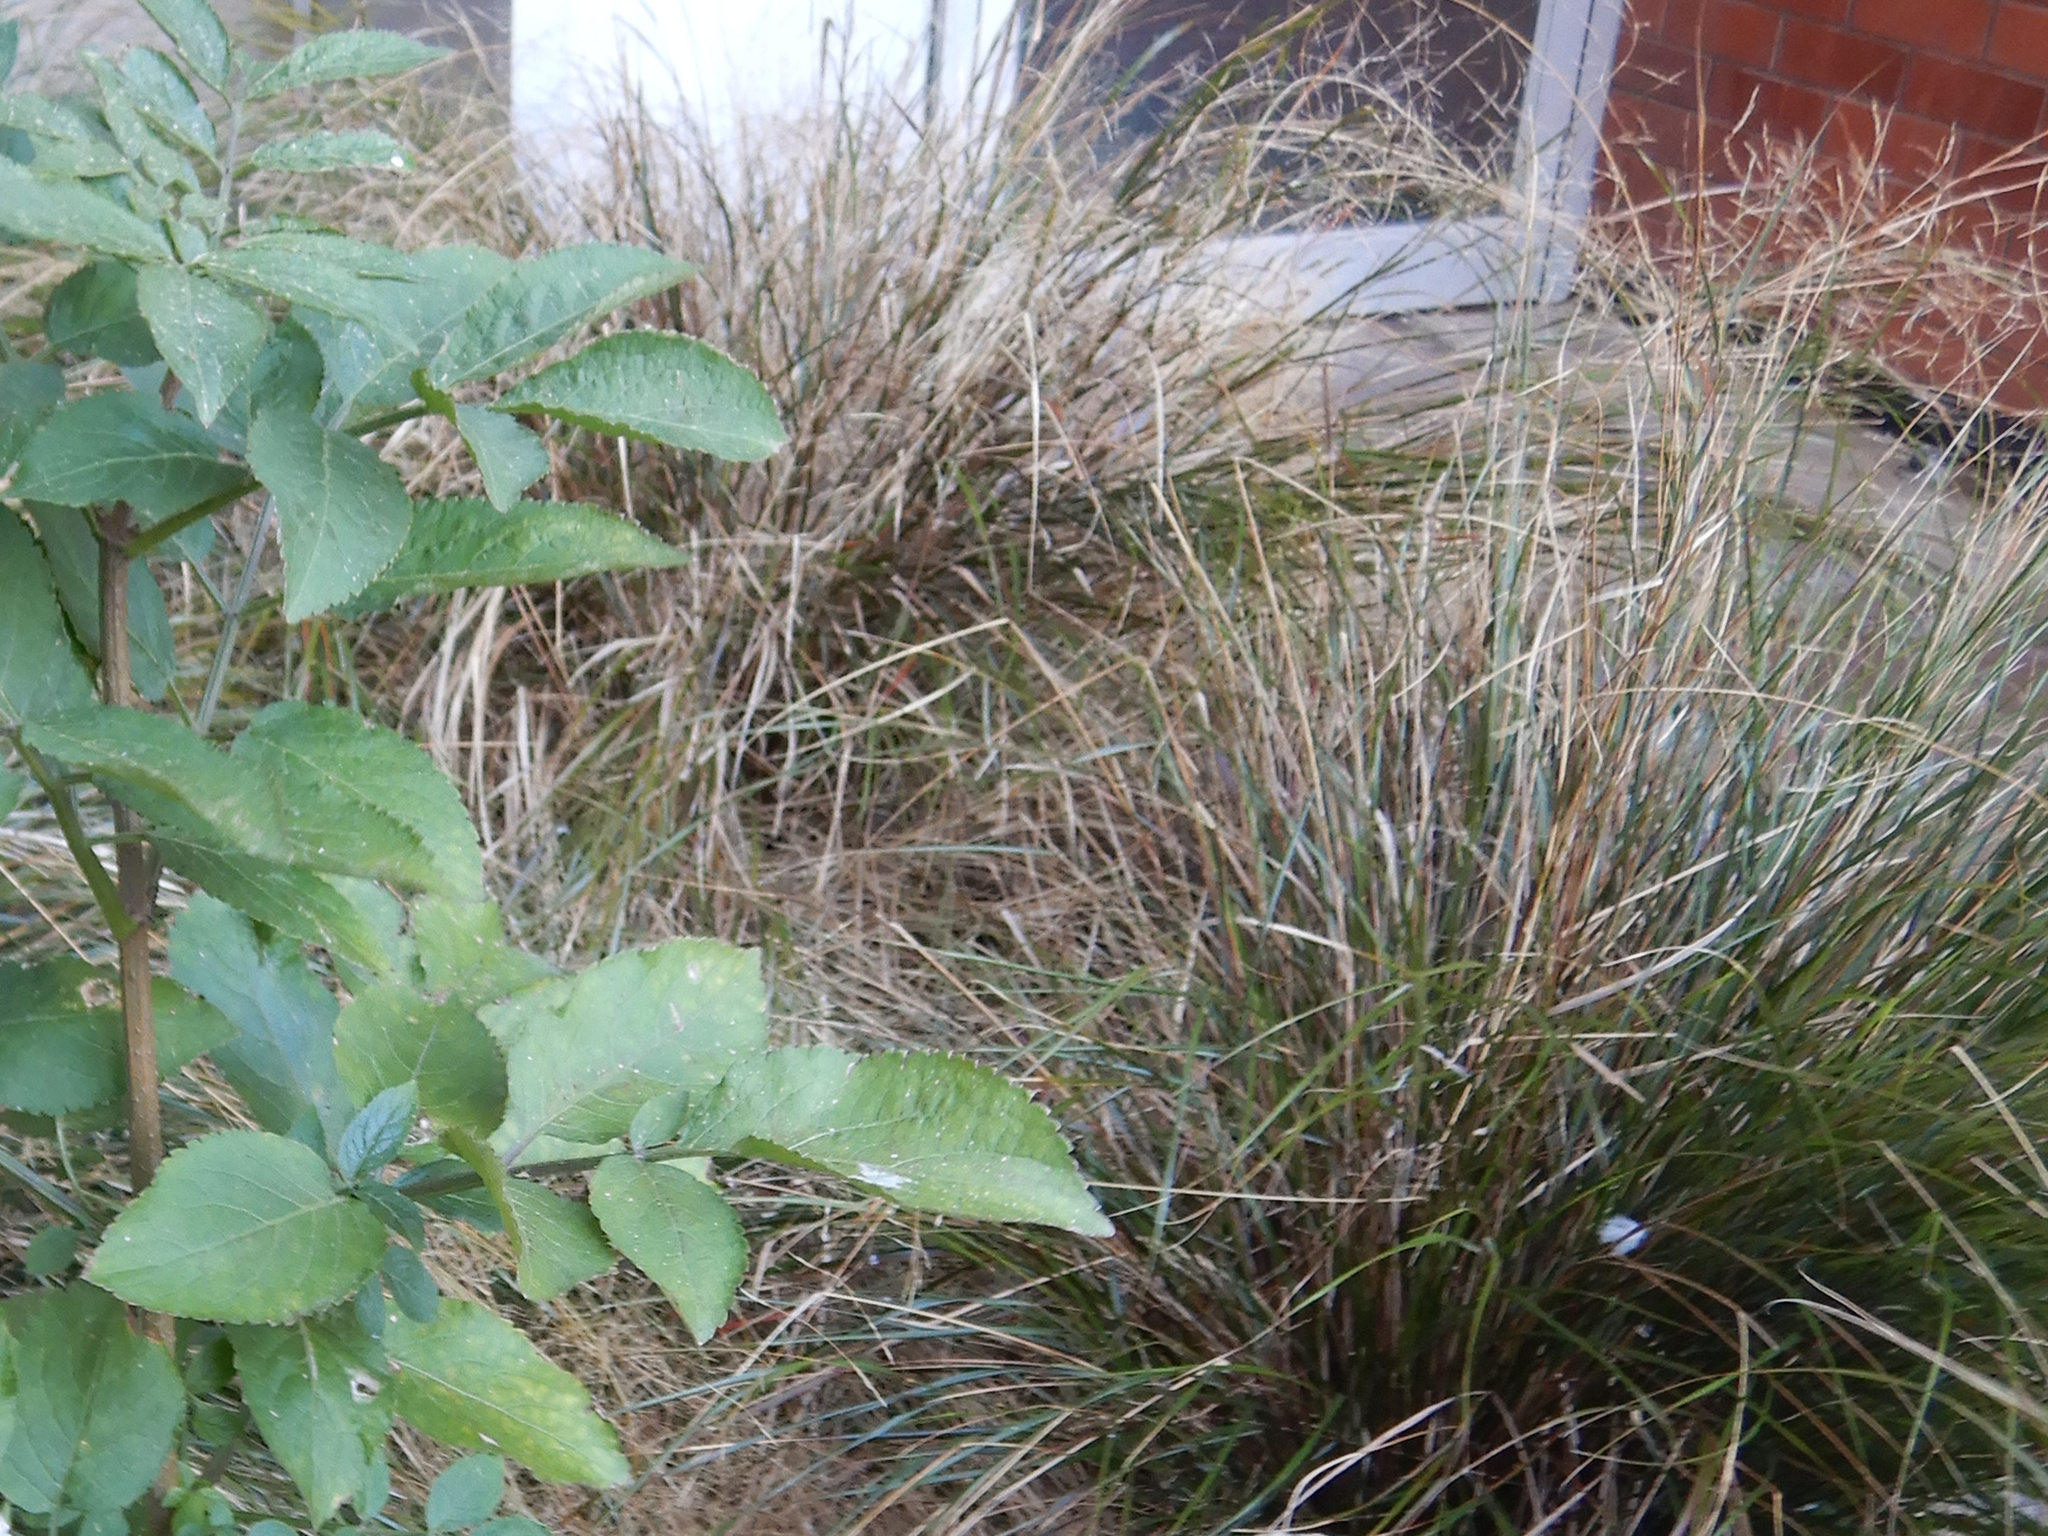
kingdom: Plantae
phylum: Tracheophyta
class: Liliopsida
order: Poales
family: Poaceae
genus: Anemanthele
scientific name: Anemanthele lessoniana
